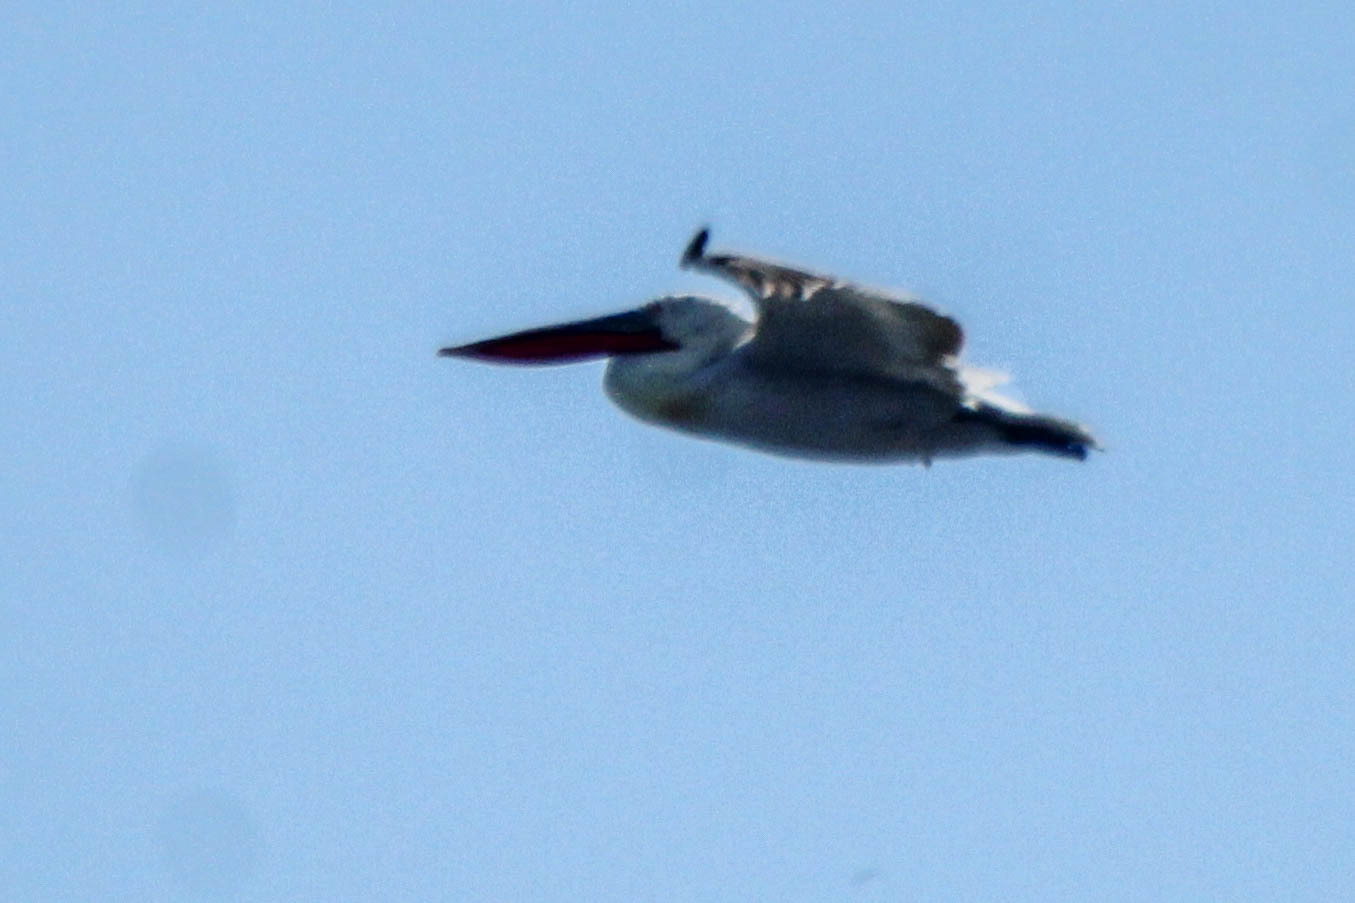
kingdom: Animalia
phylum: Chordata
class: Aves
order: Pelecaniformes
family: Pelecanidae
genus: Pelecanus
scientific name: Pelecanus crispus
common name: Dalmatian pelican
